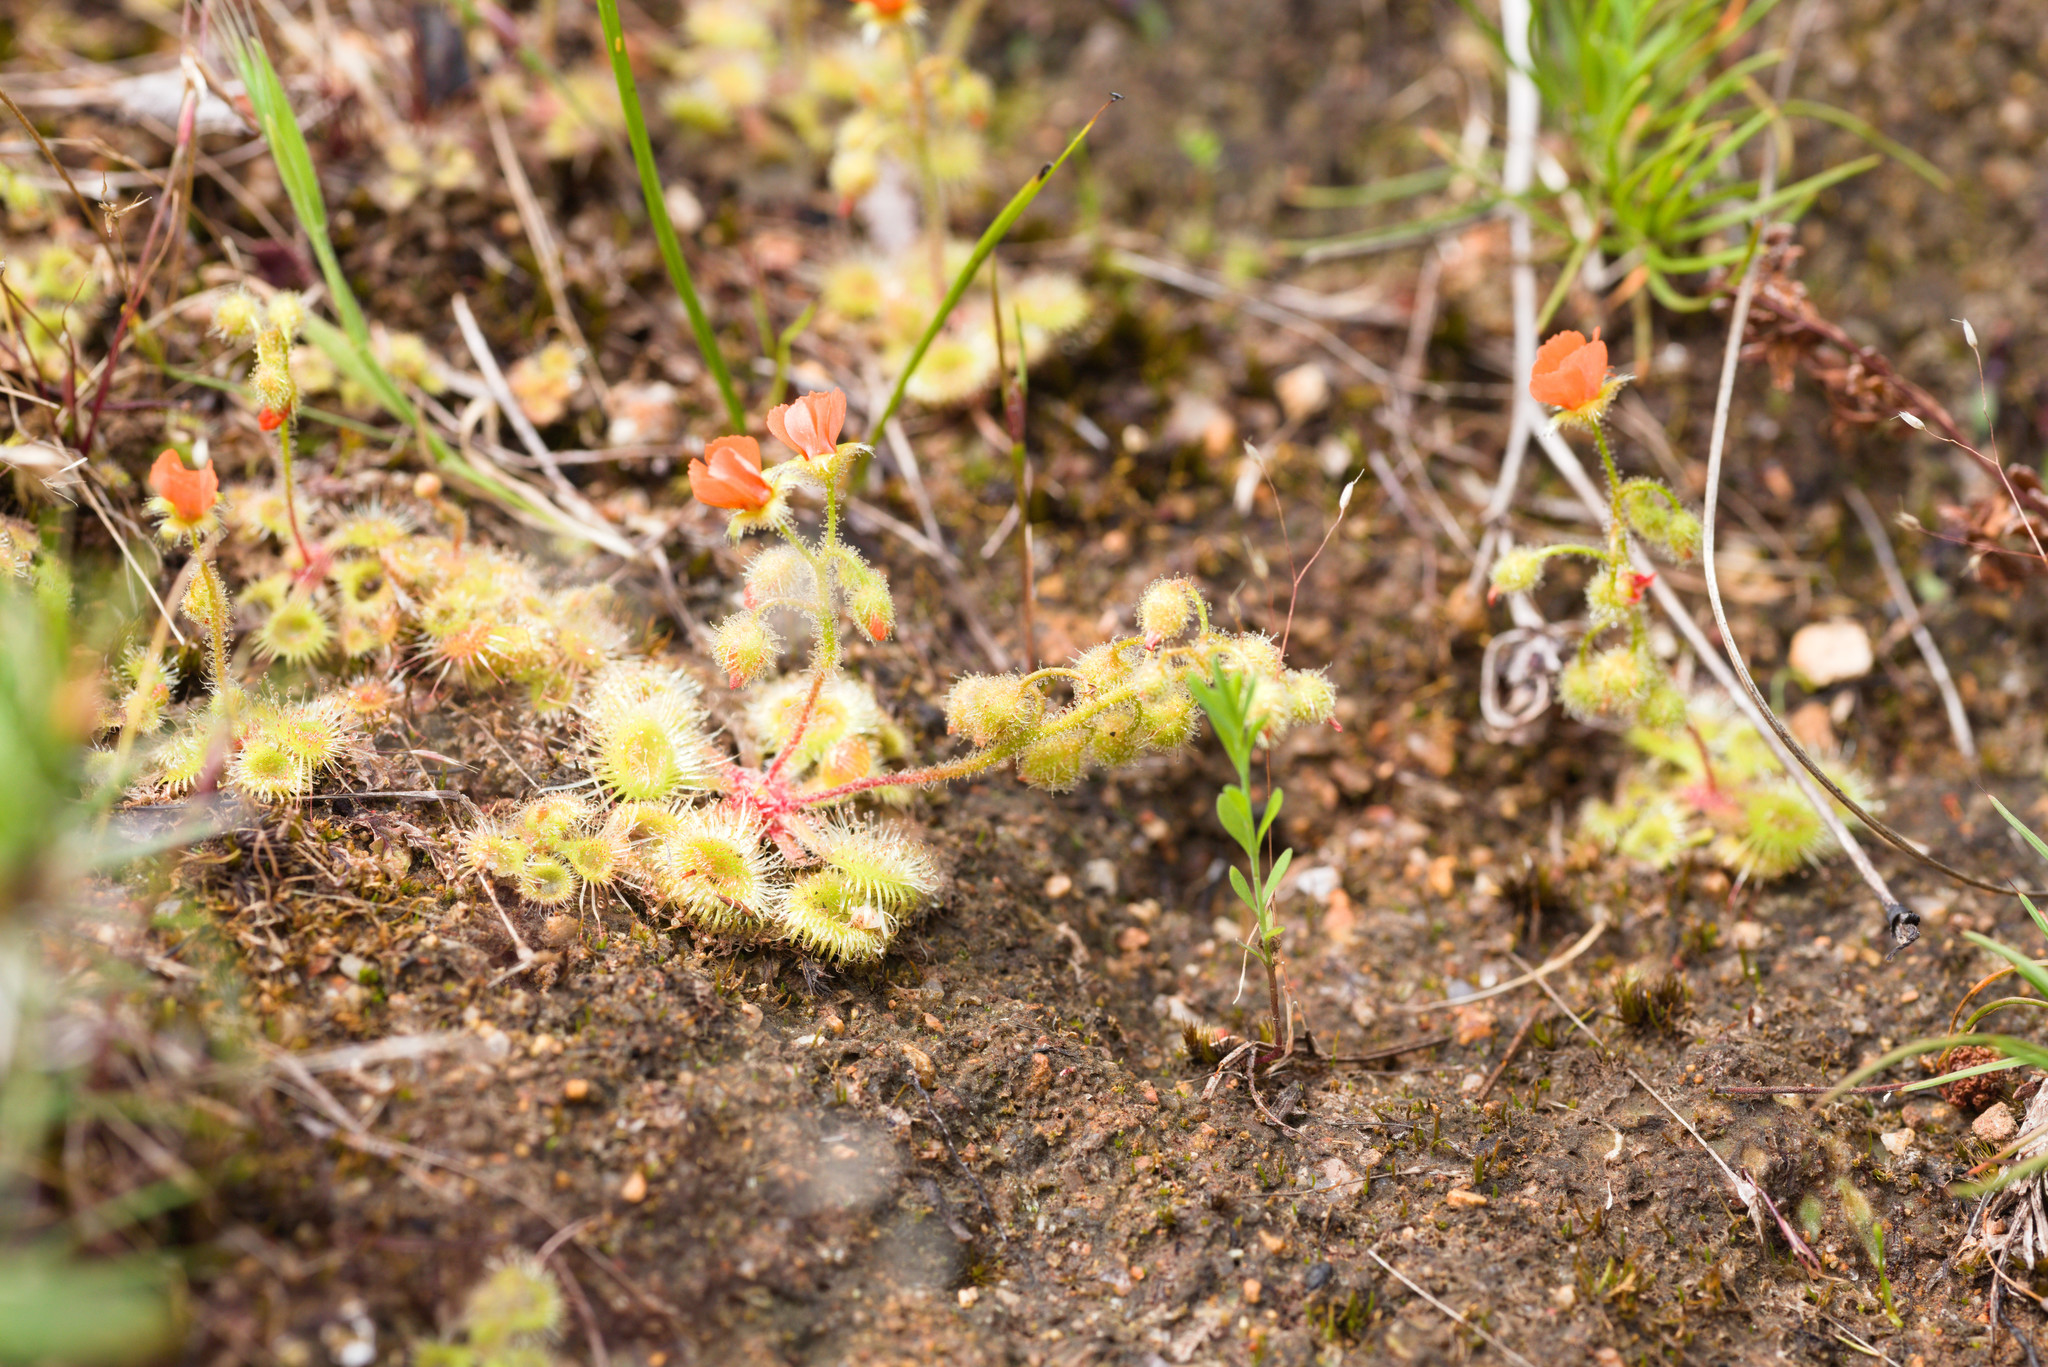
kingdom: Plantae
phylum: Tracheophyta
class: Magnoliopsida
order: Caryophyllales
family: Droseraceae
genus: Drosera
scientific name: Drosera glanduligera
